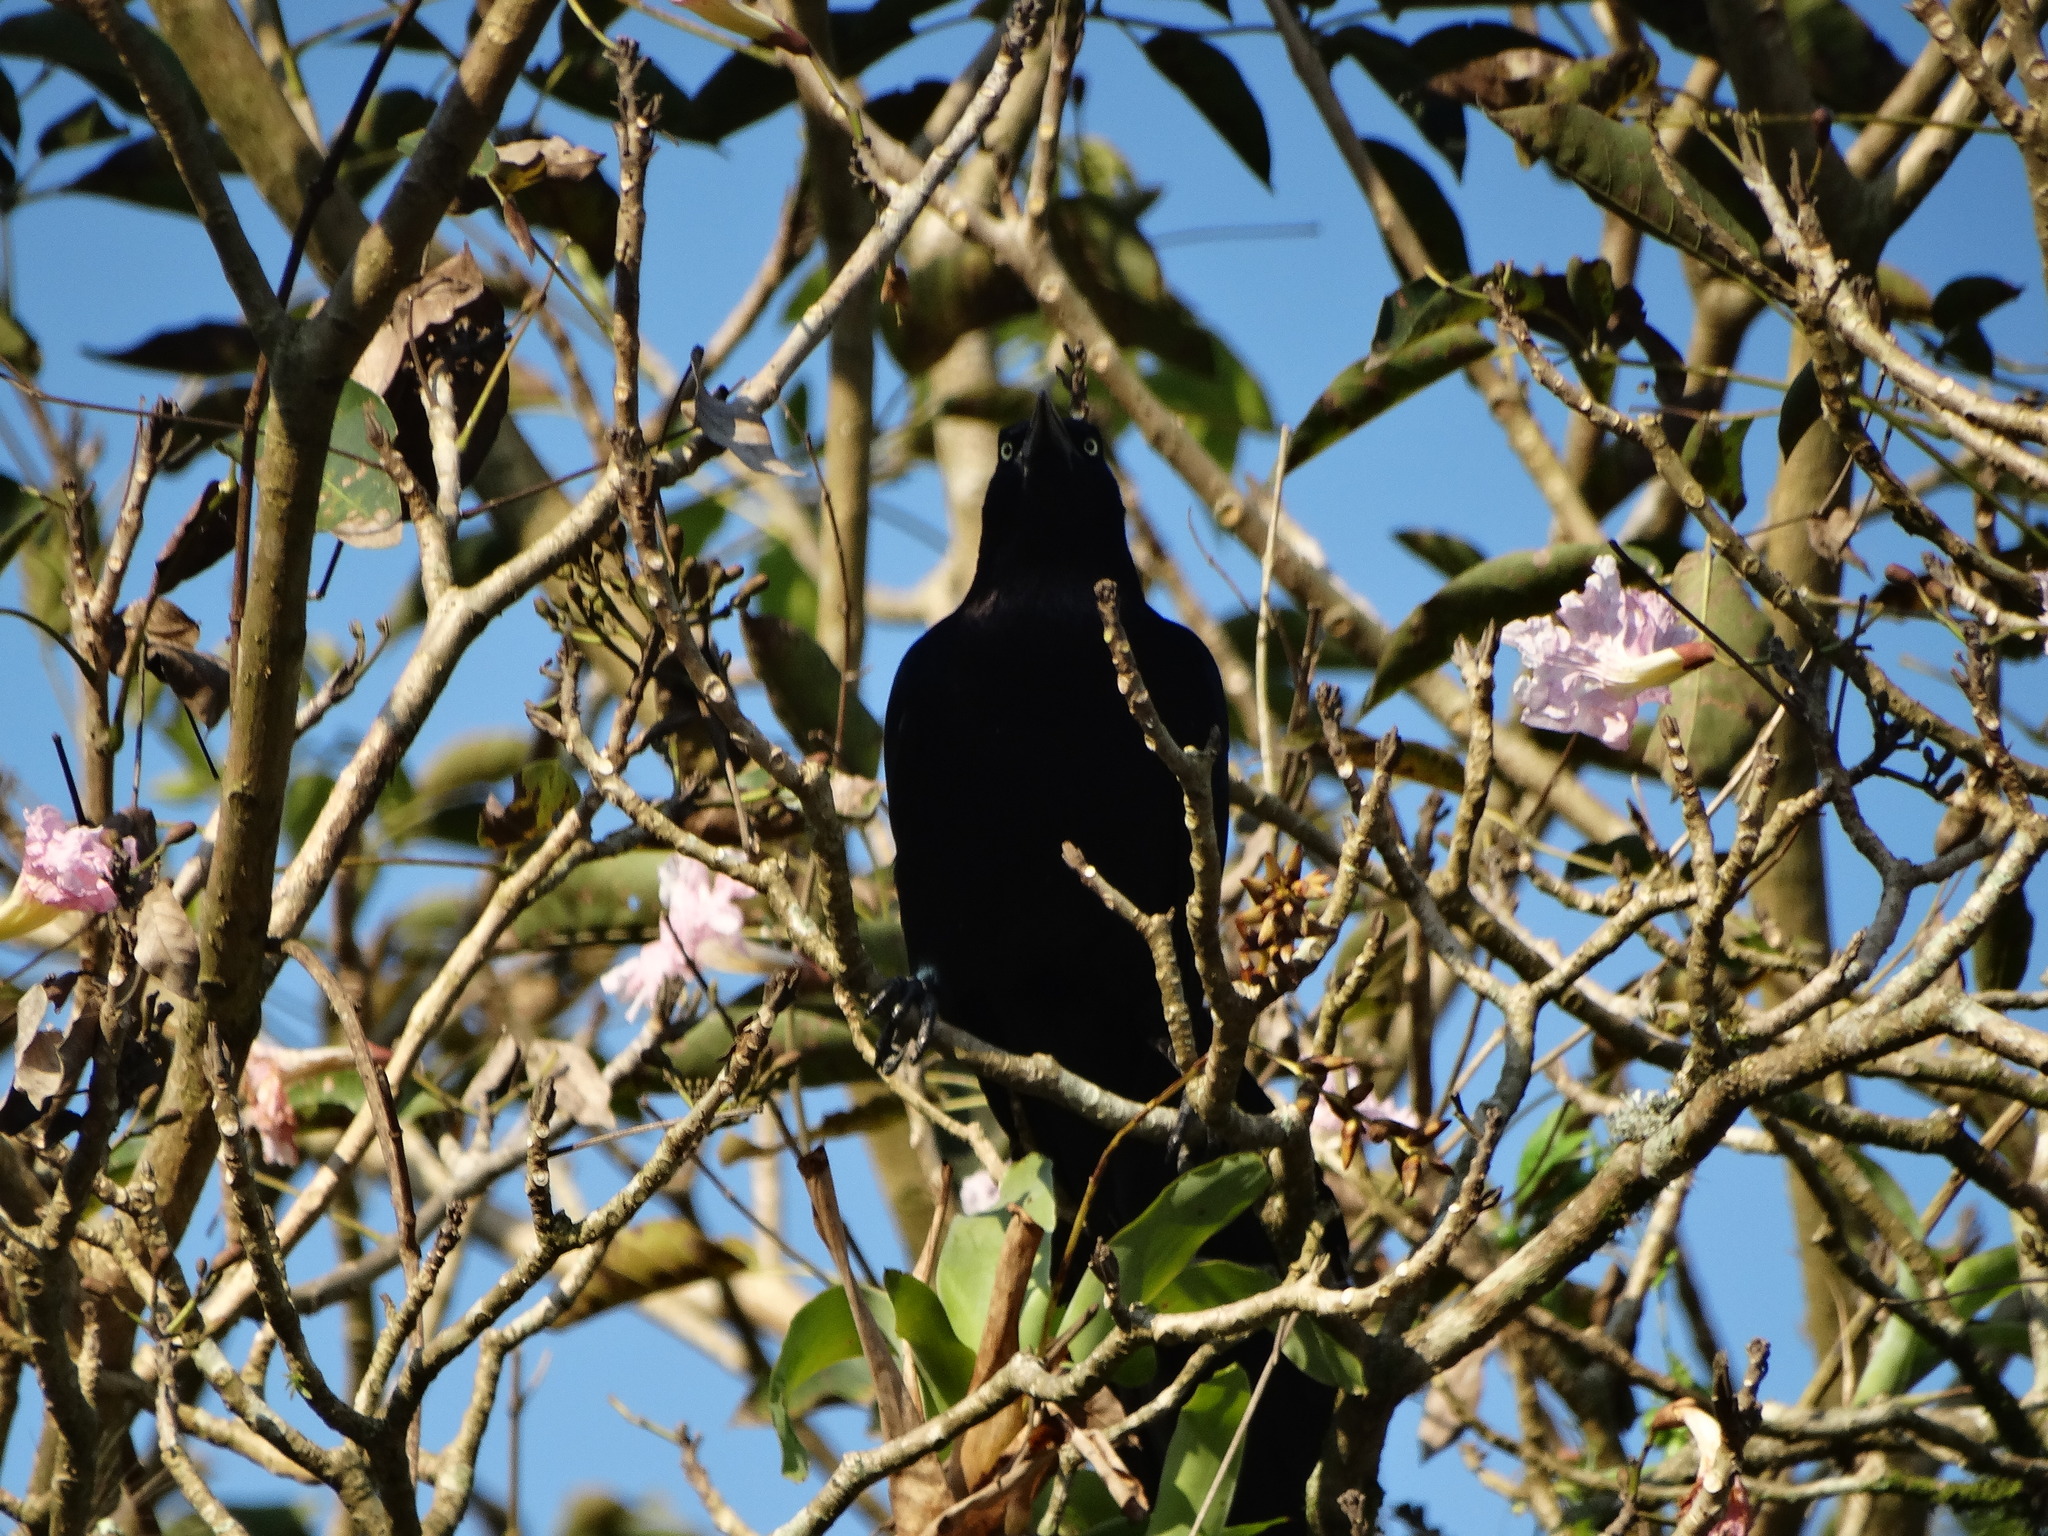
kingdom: Animalia
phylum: Chordata
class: Aves
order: Passeriformes
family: Icteridae
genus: Quiscalus
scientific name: Quiscalus mexicanus
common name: Great-tailed grackle
